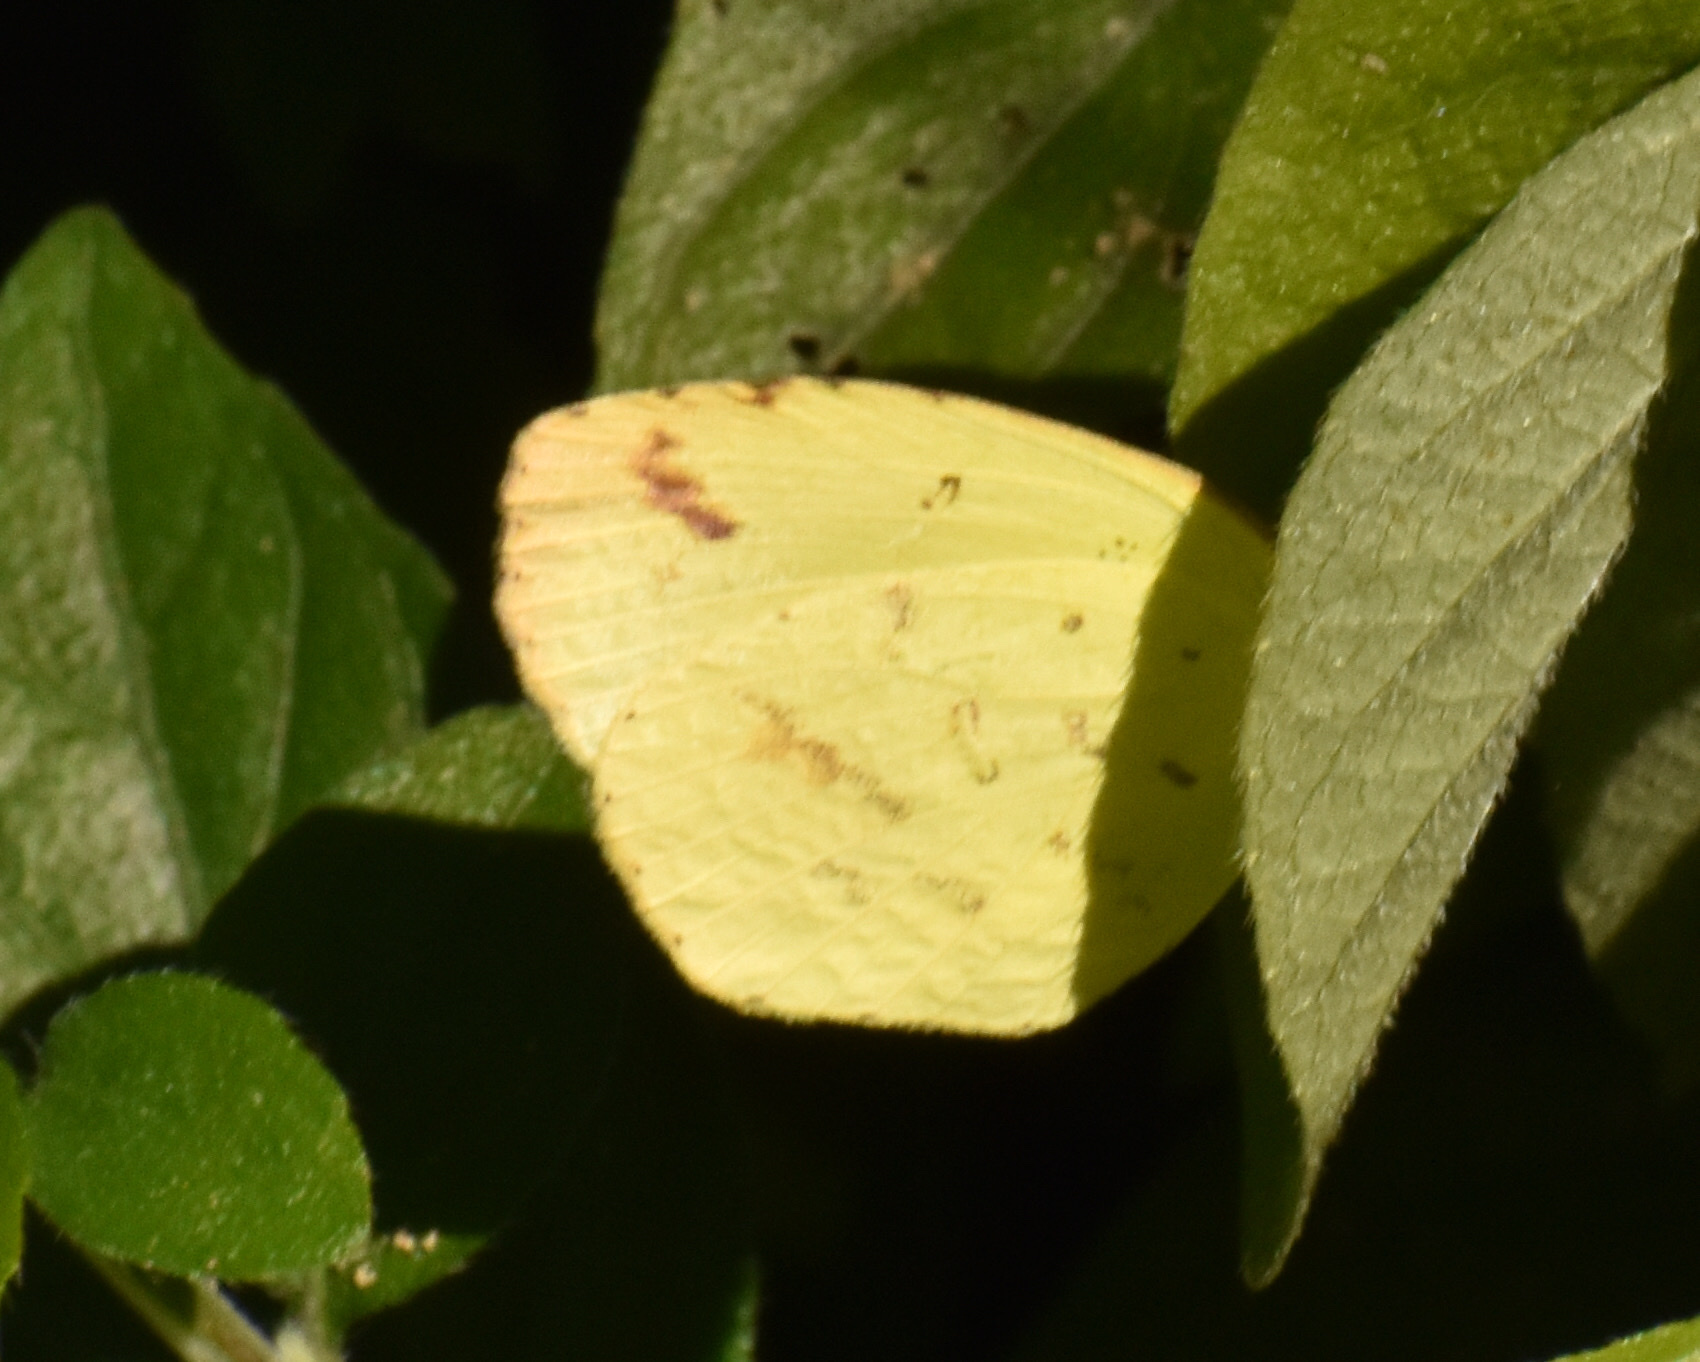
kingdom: Animalia
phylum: Arthropoda
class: Insecta
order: Lepidoptera
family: Pieridae
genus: Eurema
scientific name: Eurema desjardinsii
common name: Angled grass yellow
